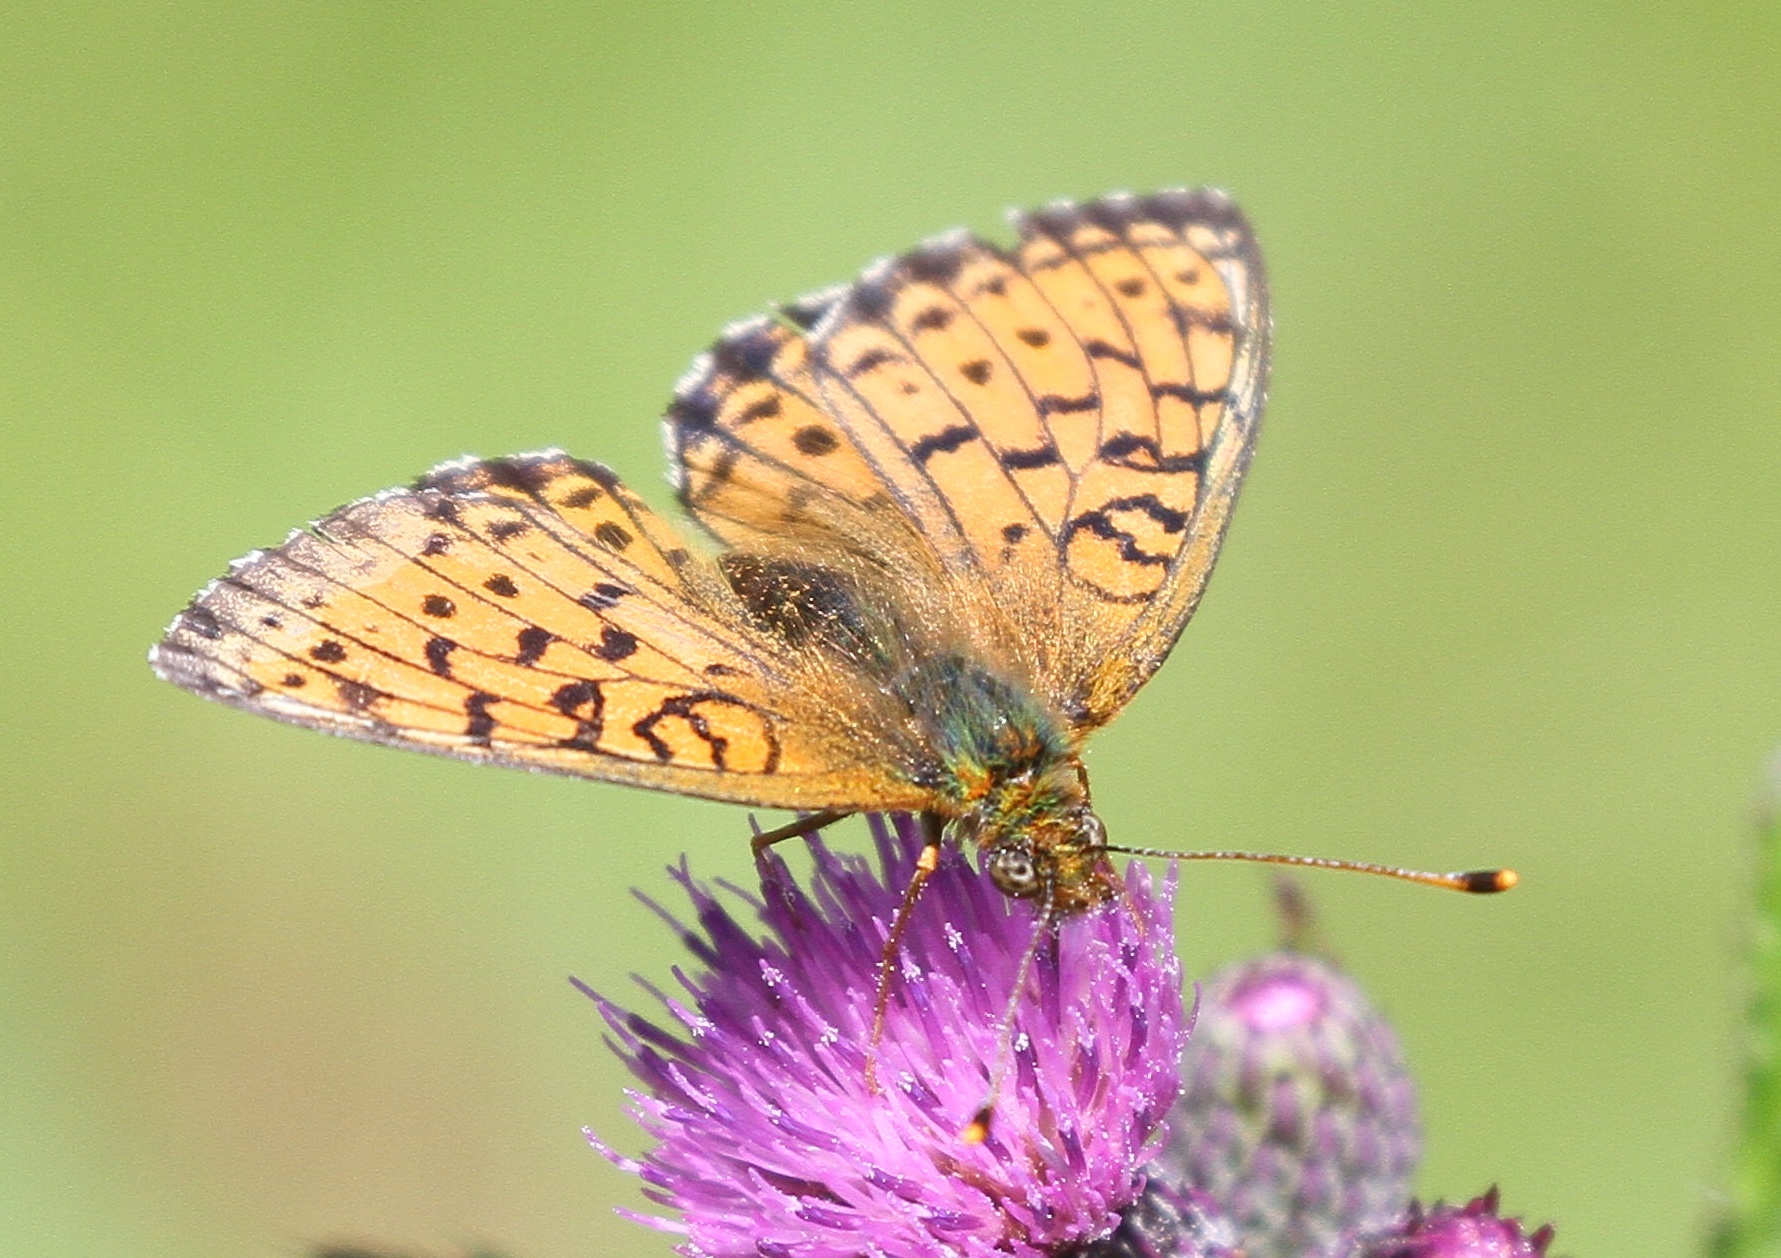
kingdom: Animalia
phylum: Arthropoda
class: Insecta
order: Lepidoptera
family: Nymphalidae
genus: Brenthis
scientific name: Brenthis ino
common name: Lesser marbled fritillary
